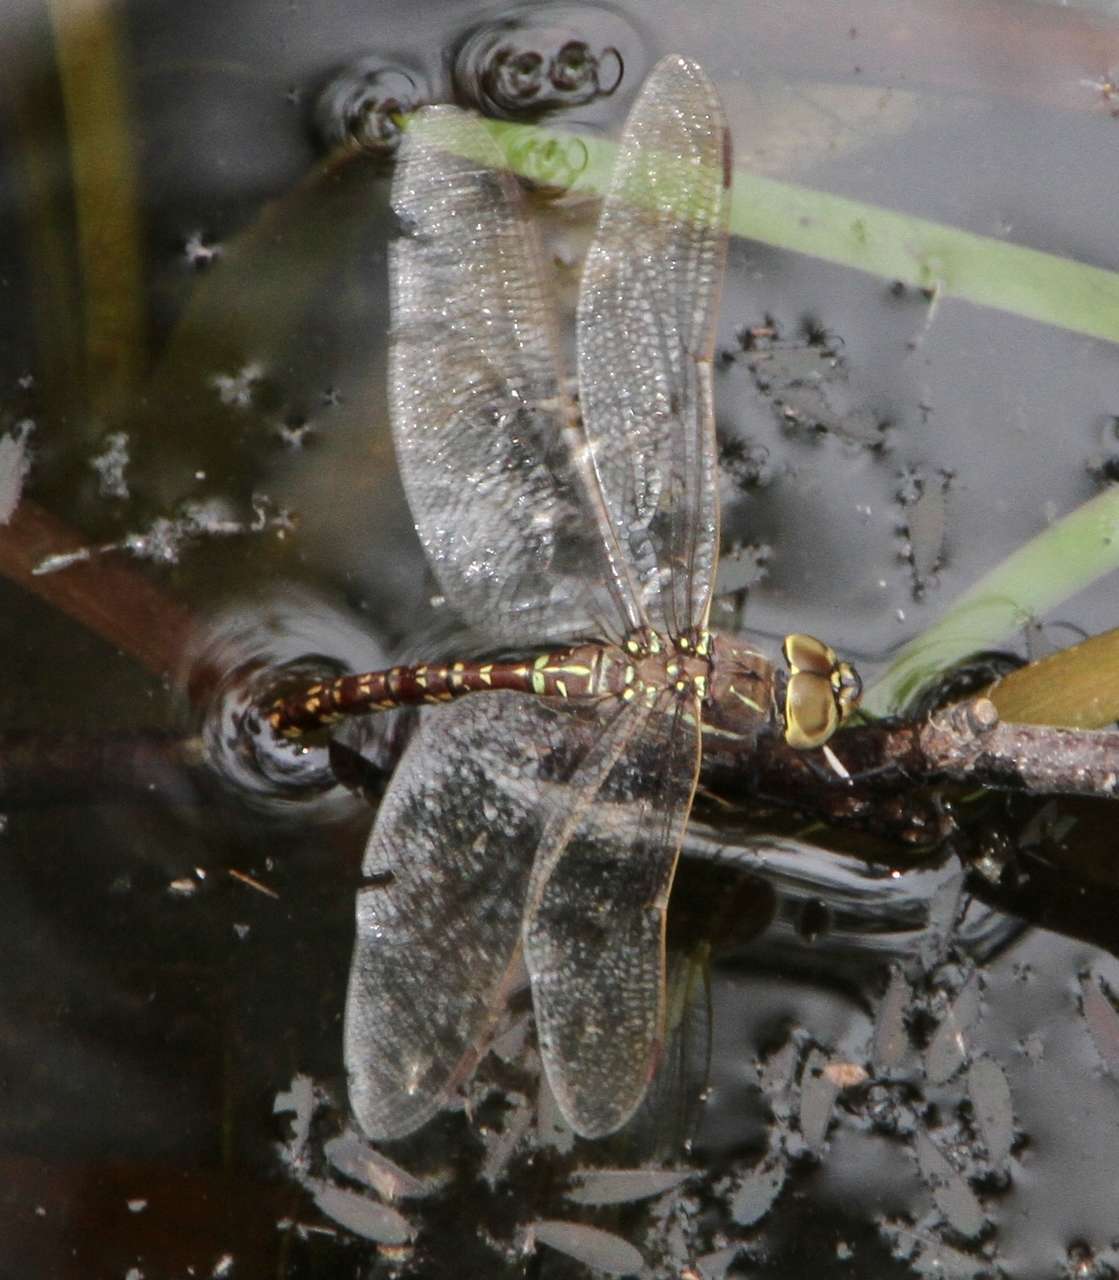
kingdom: Animalia
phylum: Arthropoda
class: Insecta
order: Odonata
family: Aeshnidae
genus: Aeshna
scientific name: Aeshna brevistyla
